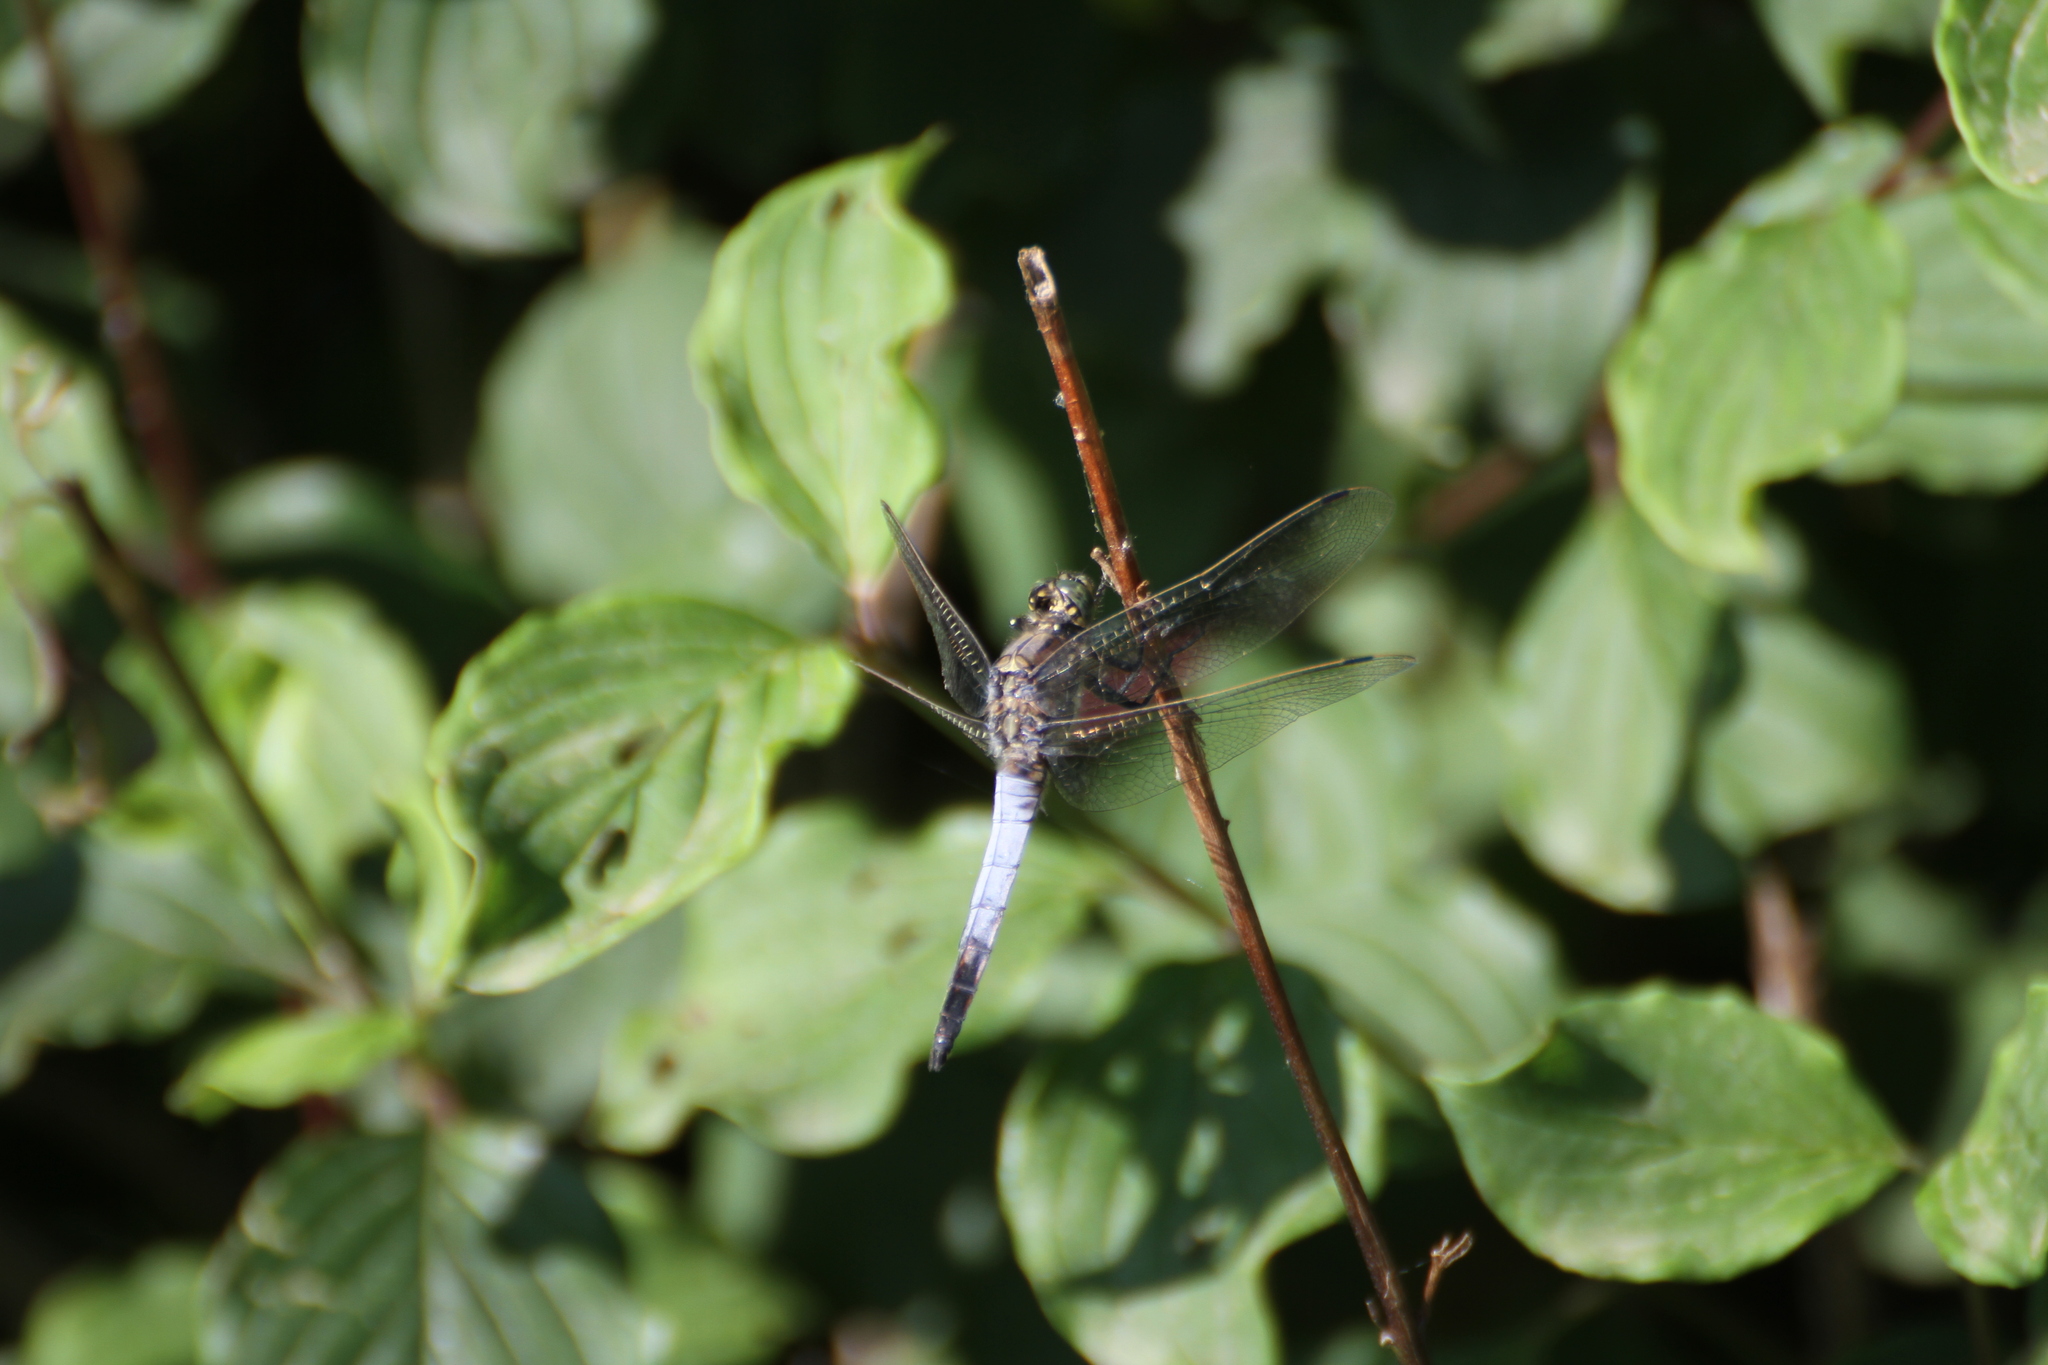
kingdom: Animalia
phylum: Arthropoda
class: Insecta
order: Odonata
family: Libellulidae
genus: Orthetrum
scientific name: Orthetrum cancellatum
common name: Black-tailed skimmer
